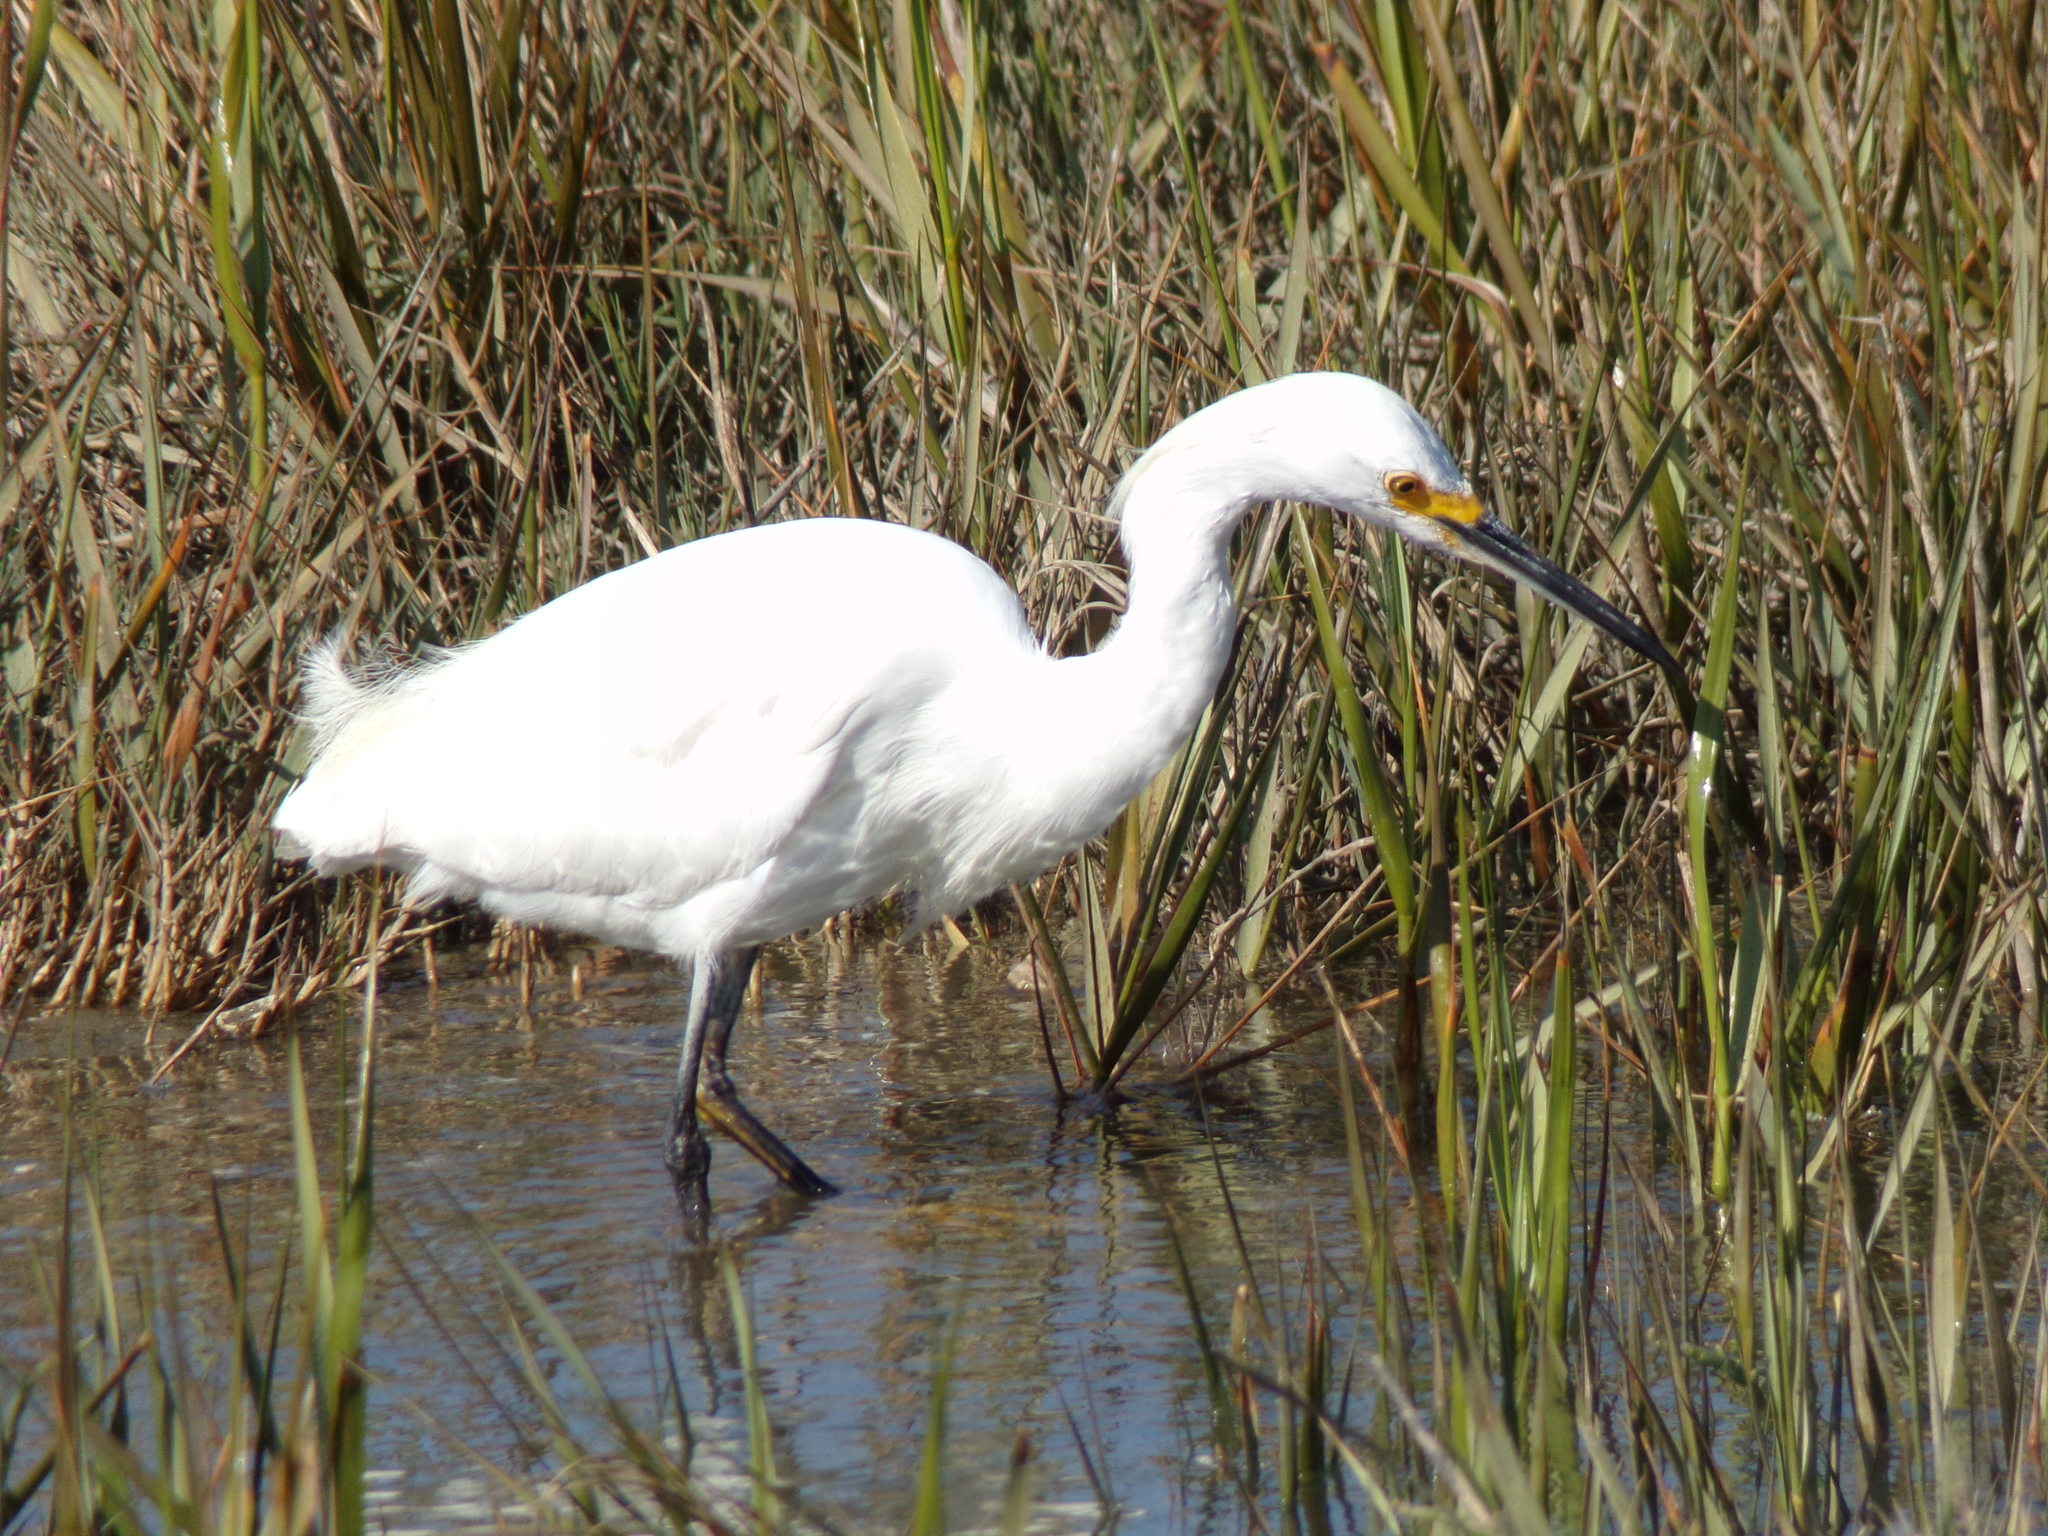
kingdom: Animalia
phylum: Chordata
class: Aves
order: Pelecaniformes
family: Ardeidae
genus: Egretta
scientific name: Egretta thula
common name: Snowy egret
